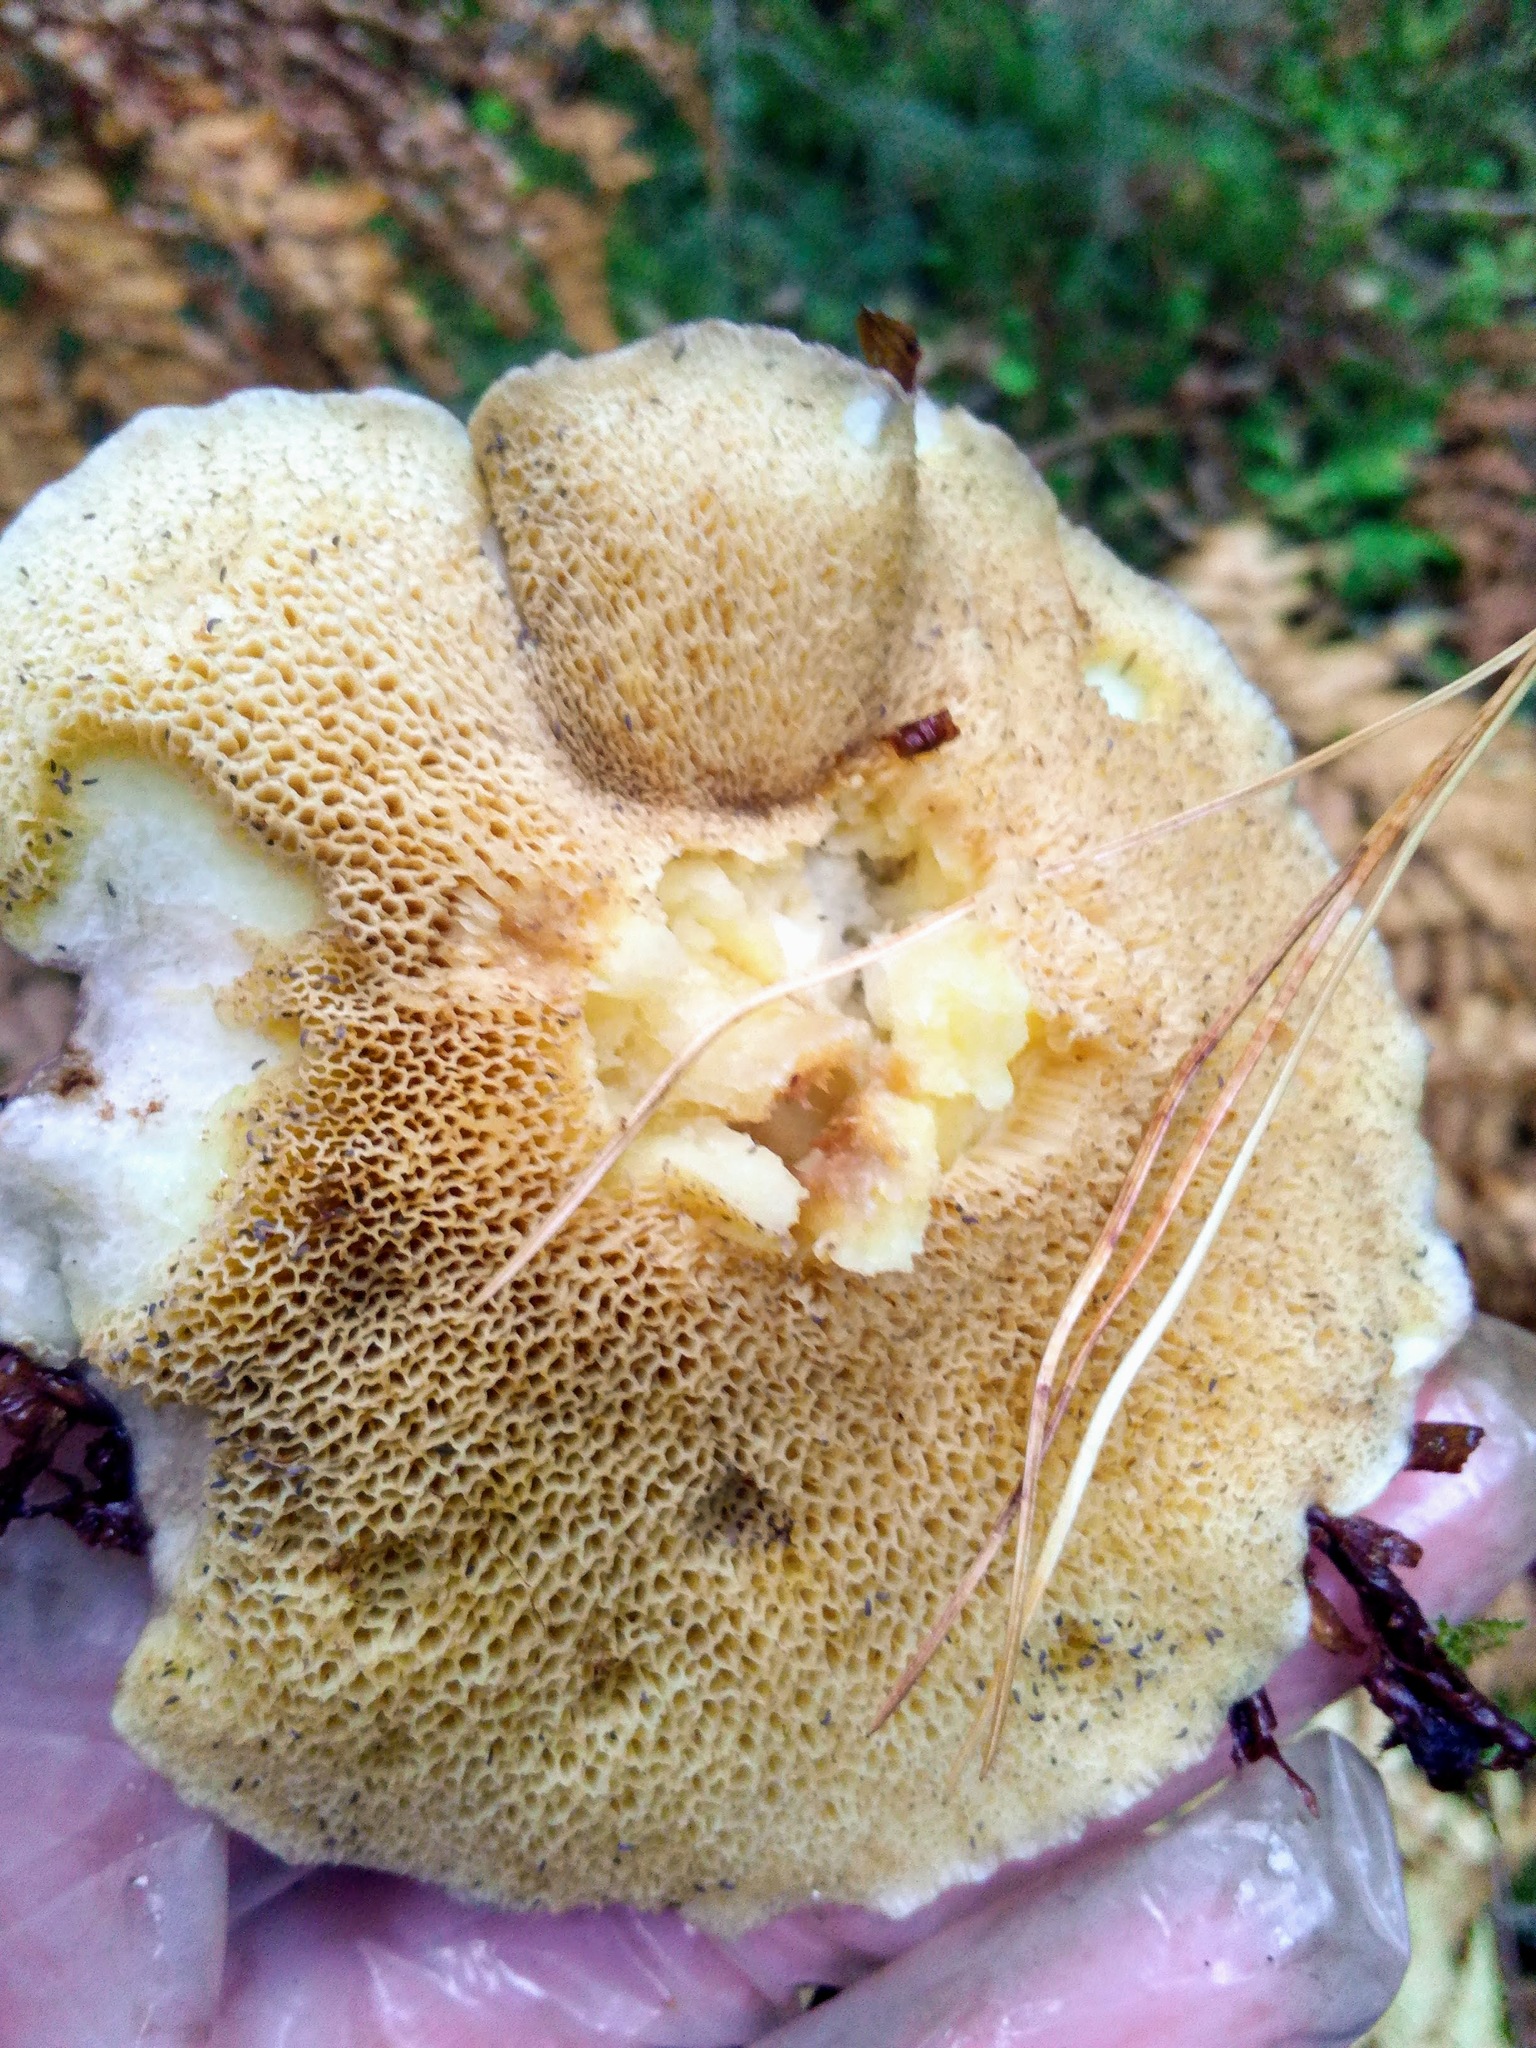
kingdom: Fungi
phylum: Basidiomycota
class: Agaricomycetes
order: Boletales
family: Suillaceae
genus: Suillus
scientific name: Suillus placidus
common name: Slippery white bolete
